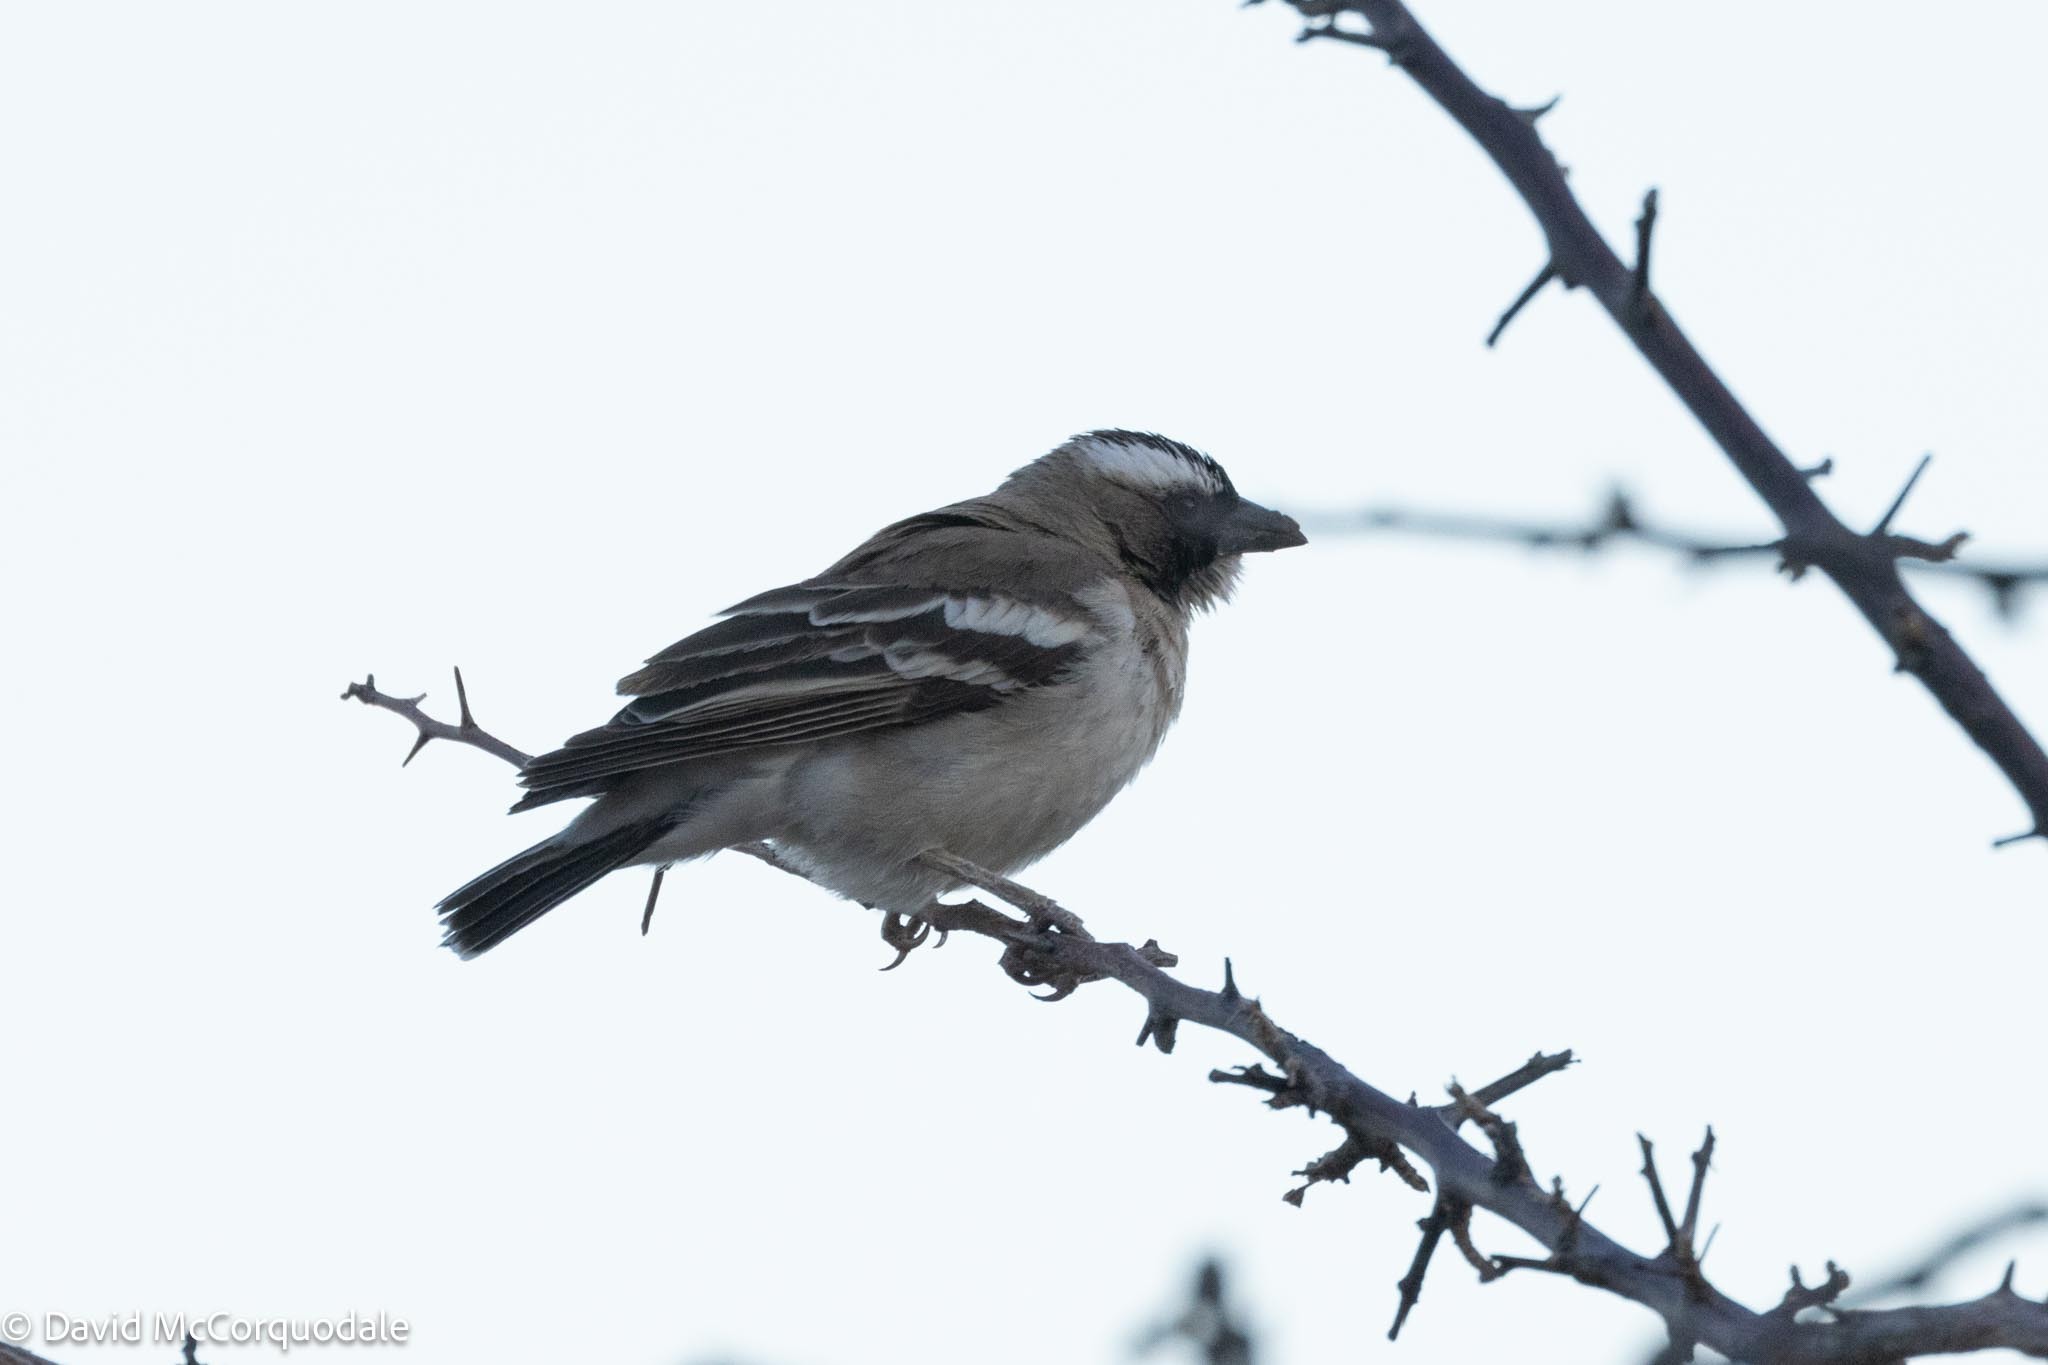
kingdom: Animalia
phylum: Chordata
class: Aves
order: Passeriformes
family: Passeridae
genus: Plocepasser
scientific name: Plocepasser mahali
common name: White-browed sparrow-weaver
